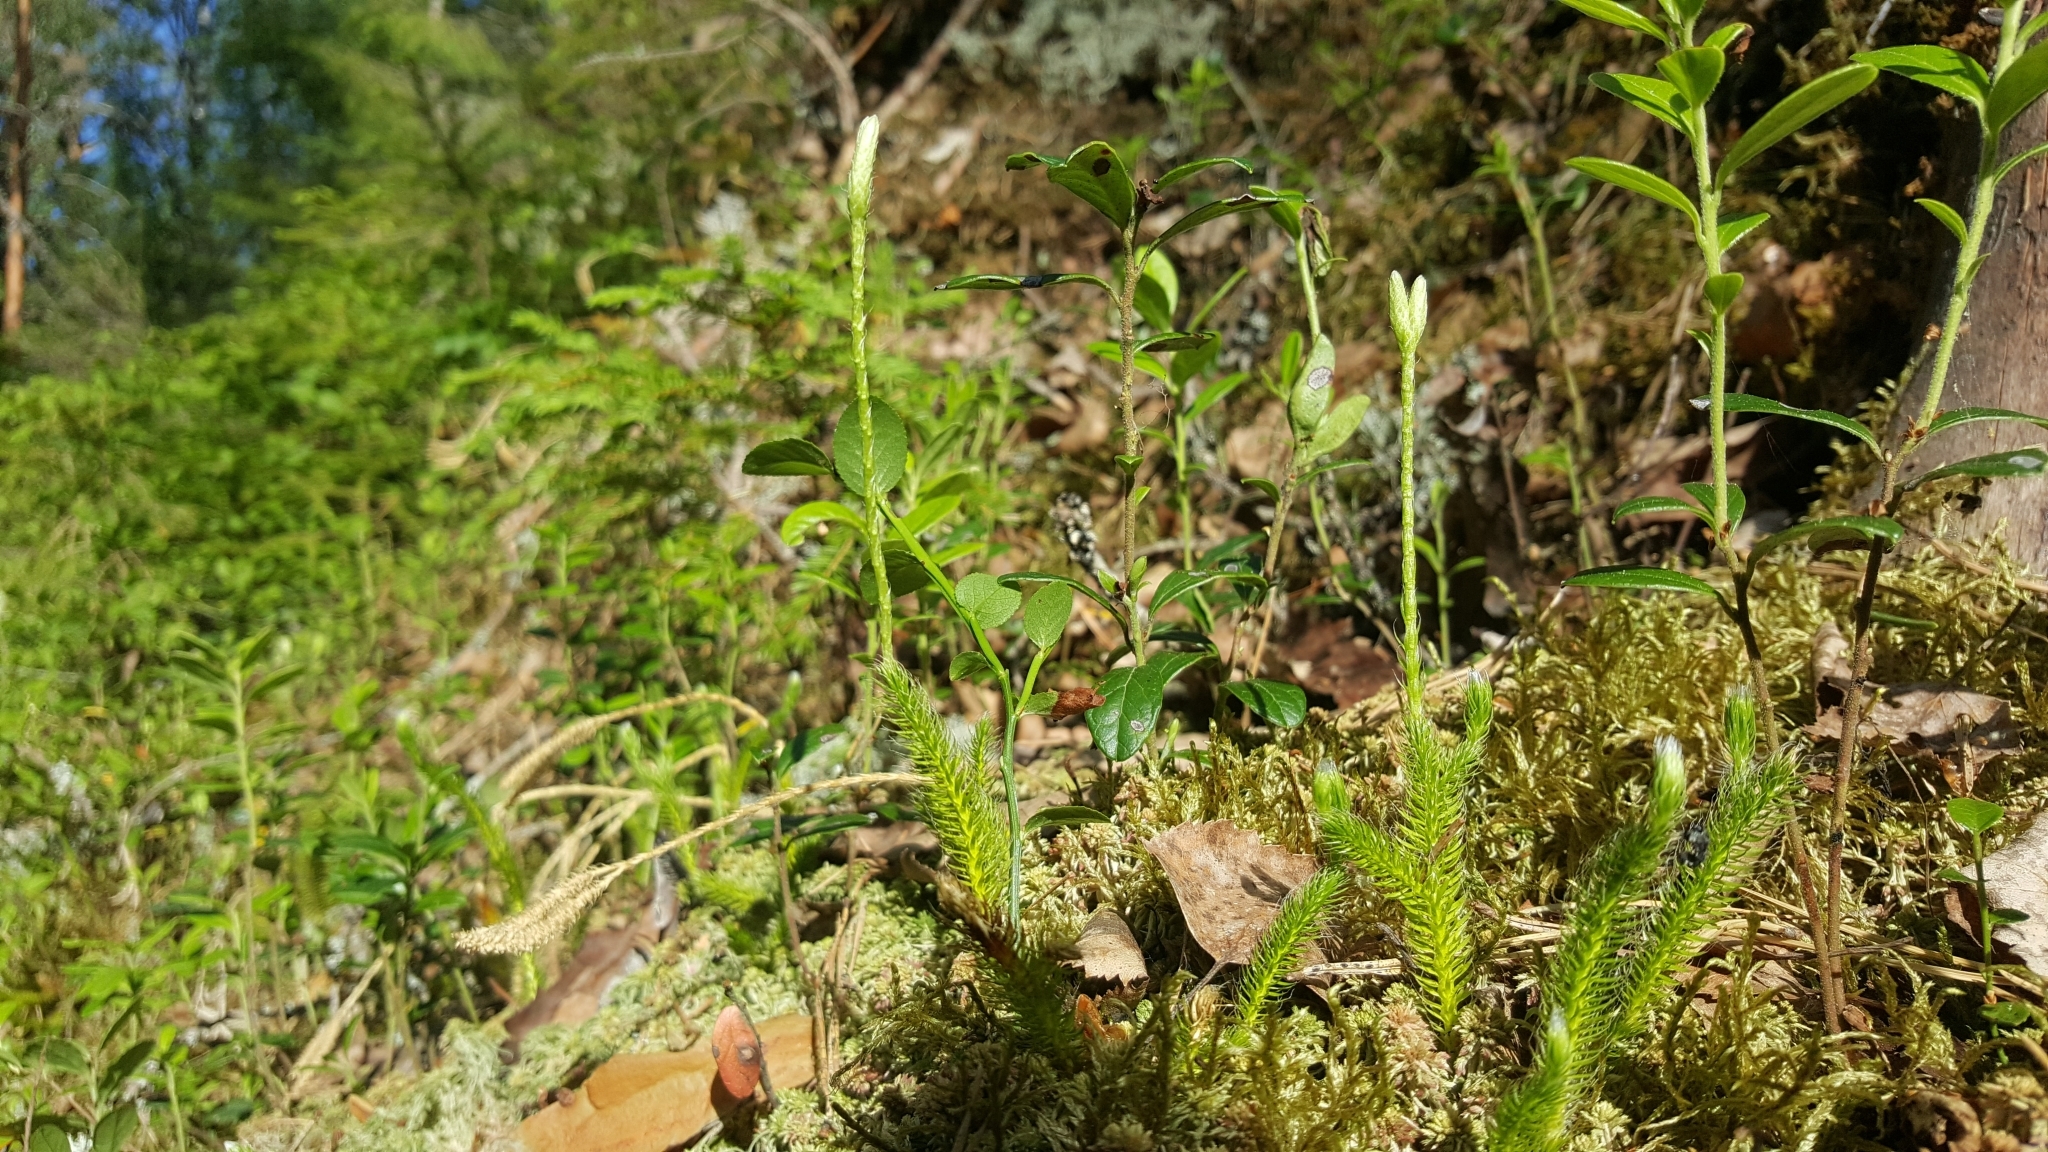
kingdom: Plantae
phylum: Tracheophyta
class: Lycopodiopsida
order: Lycopodiales
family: Lycopodiaceae
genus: Lycopodium
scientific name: Lycopodium clavatum
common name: Stag's-horn clubmoss
